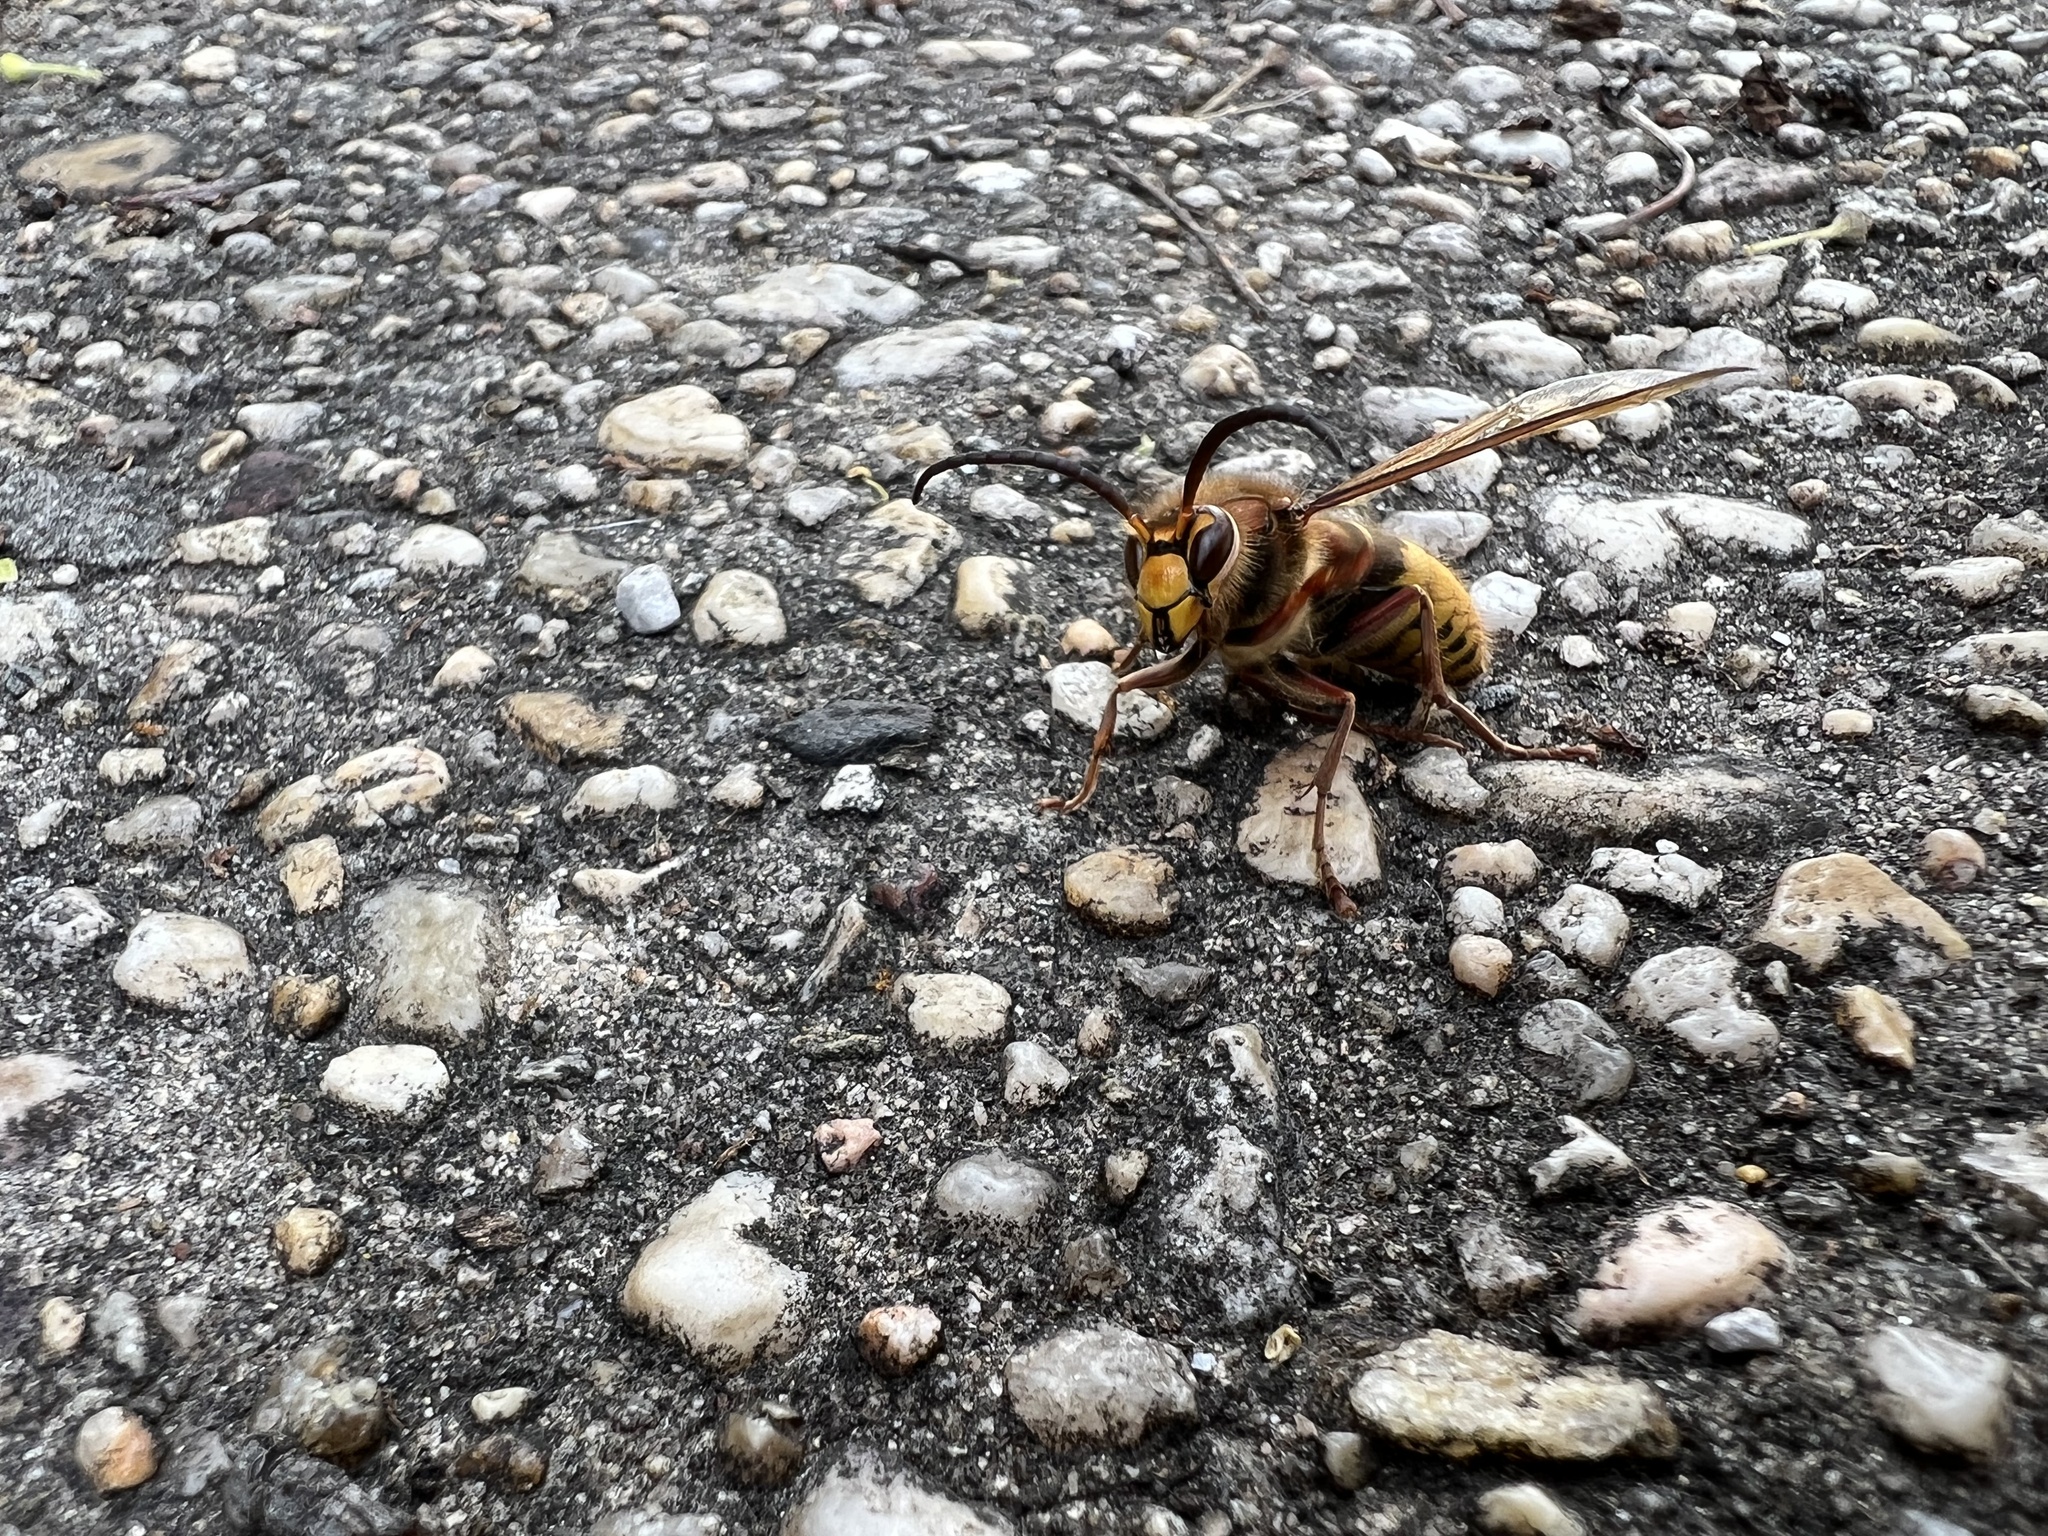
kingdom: Animalia
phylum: Arthropoda
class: Insecta
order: Hymenoptera
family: Vespidae
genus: Vespa
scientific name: Vespa crabro
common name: Hornet
